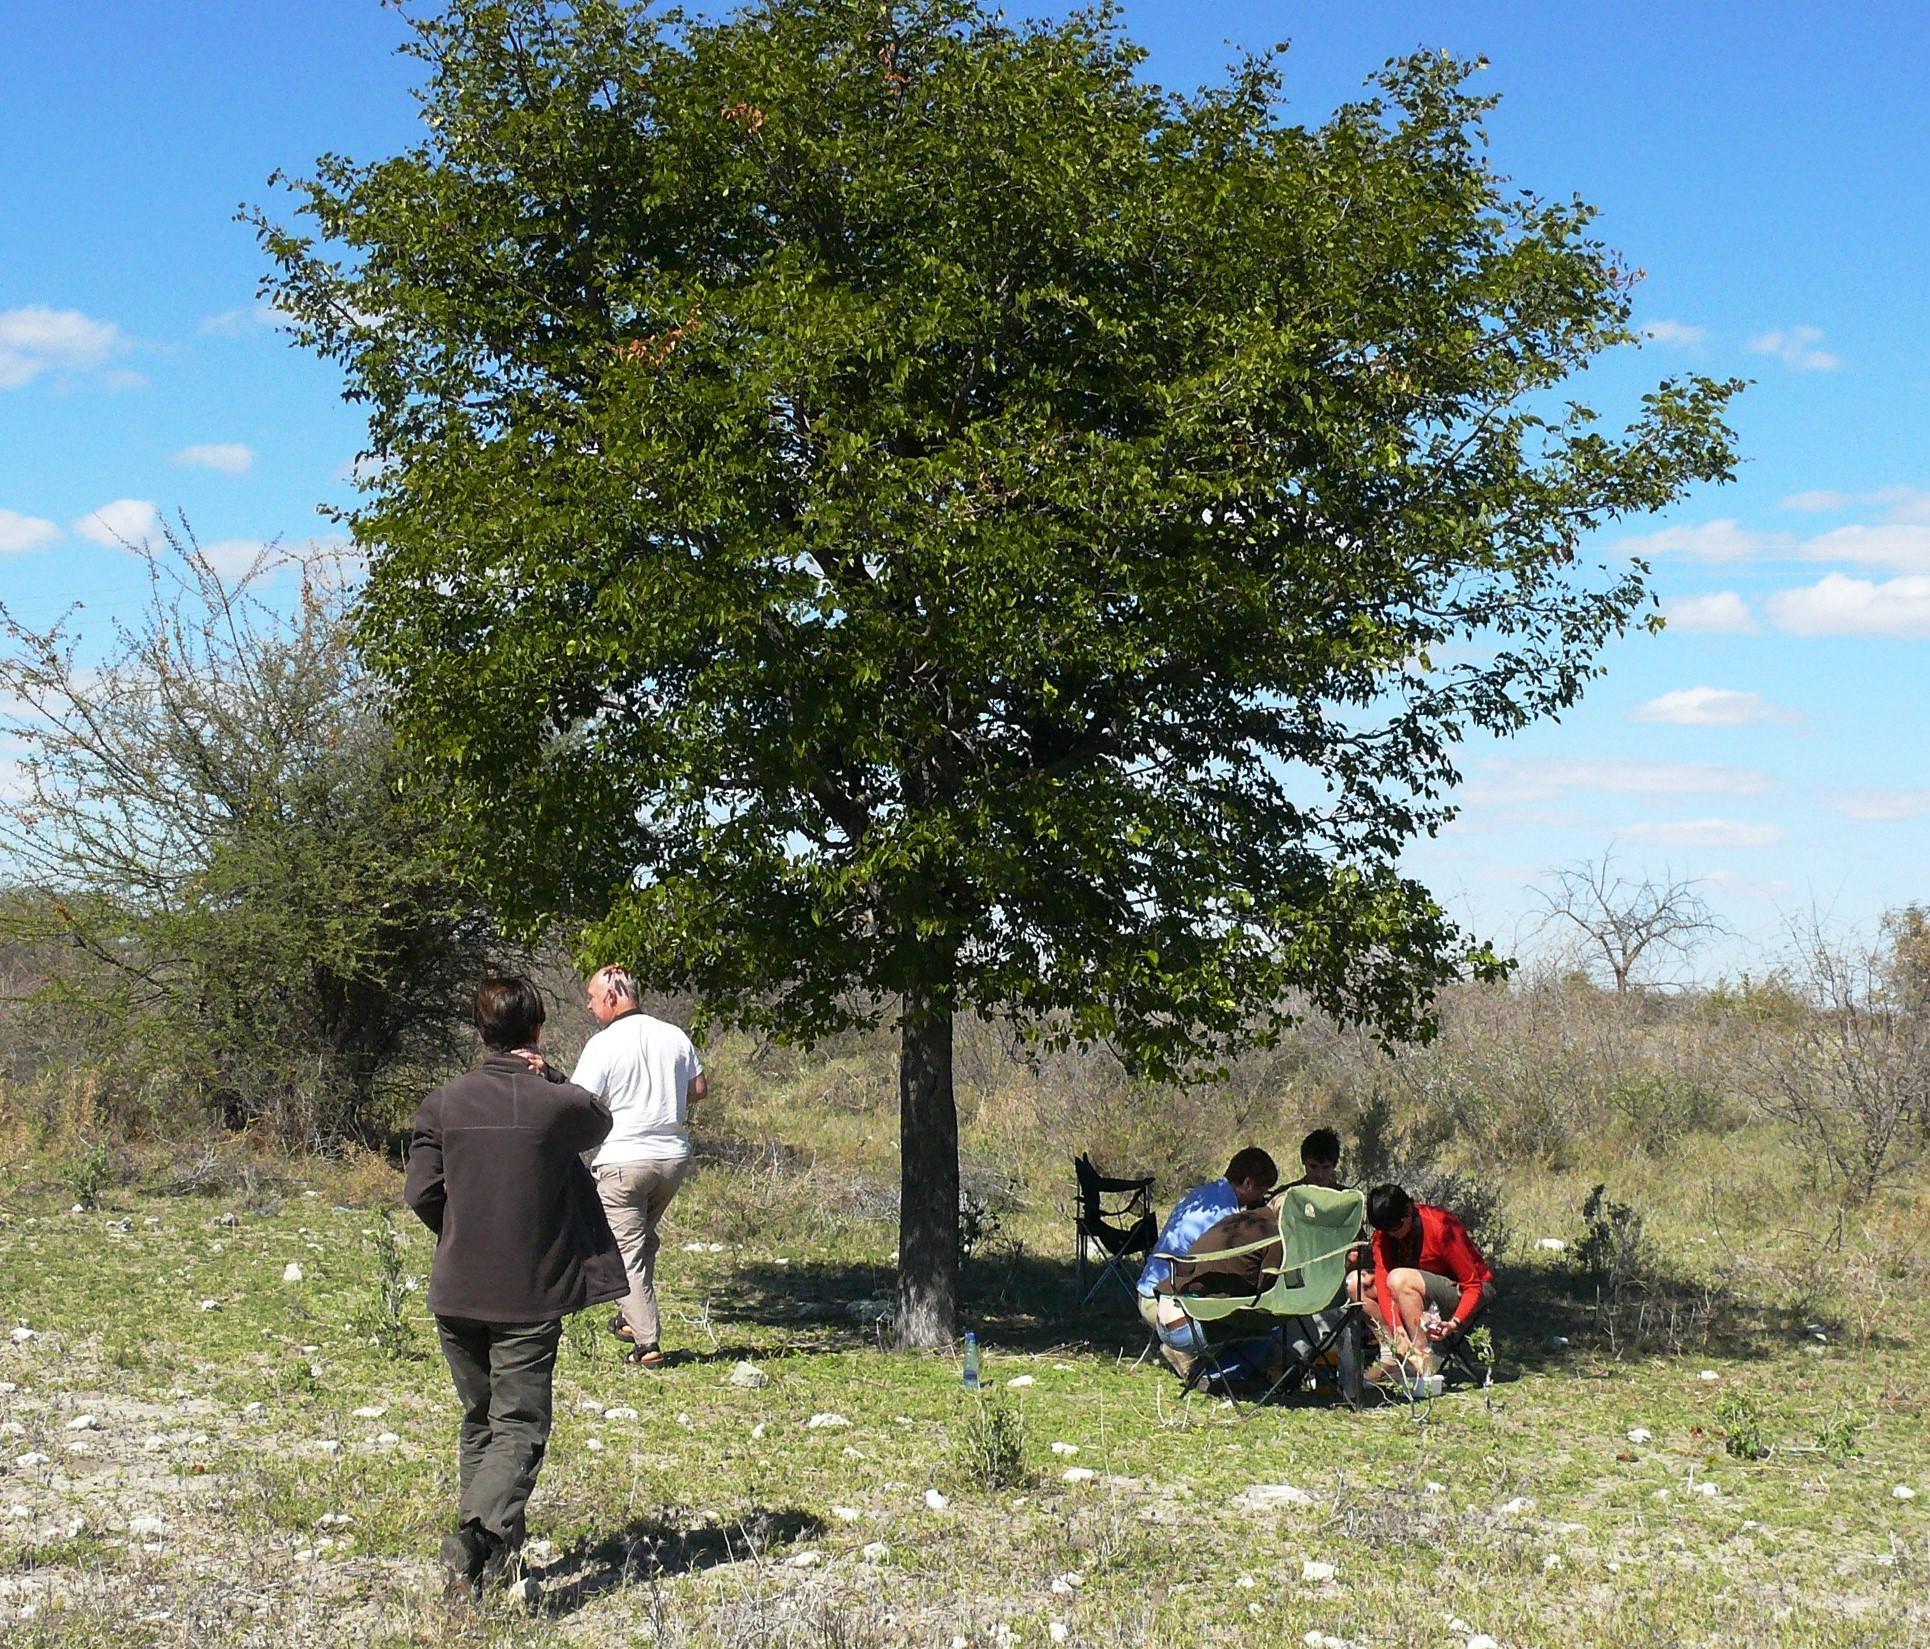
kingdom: Plantae
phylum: Tracheophyta
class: Magnoliopsida
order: Fabales
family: Fabaceae
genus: Colophospermum
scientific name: Colophospermum mopane
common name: Mopane
